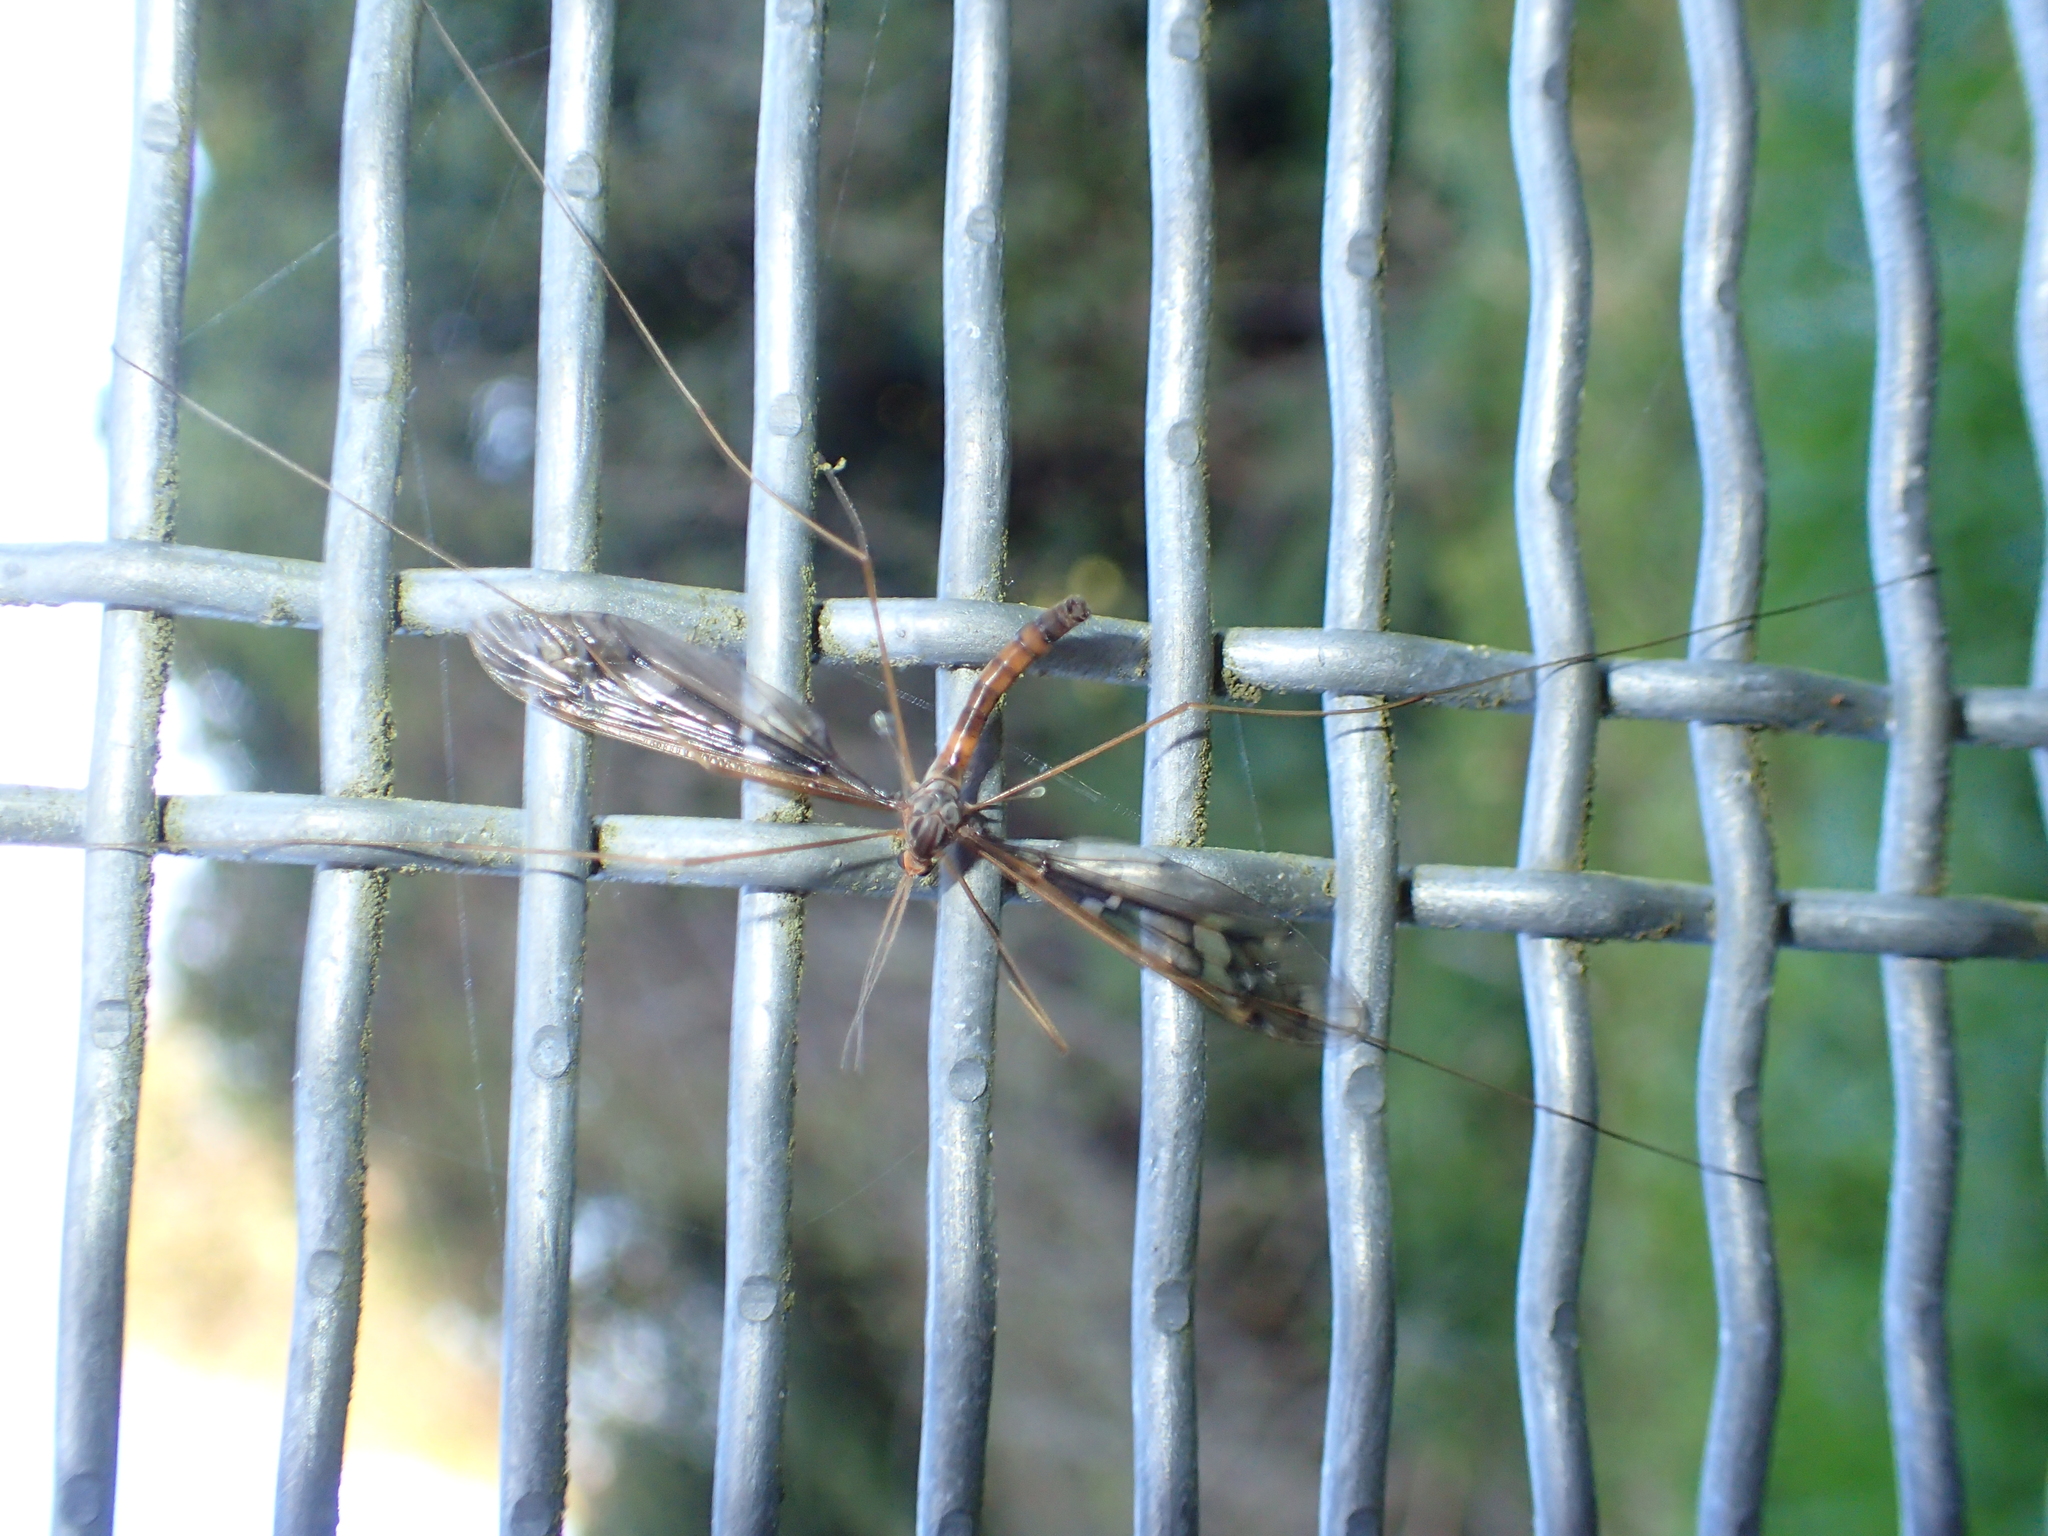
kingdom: Animalia
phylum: Arthropoda
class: Insecta
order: Diptera
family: Tipulidae
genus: Leptotarsus
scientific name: Leptotarsus binotatus
